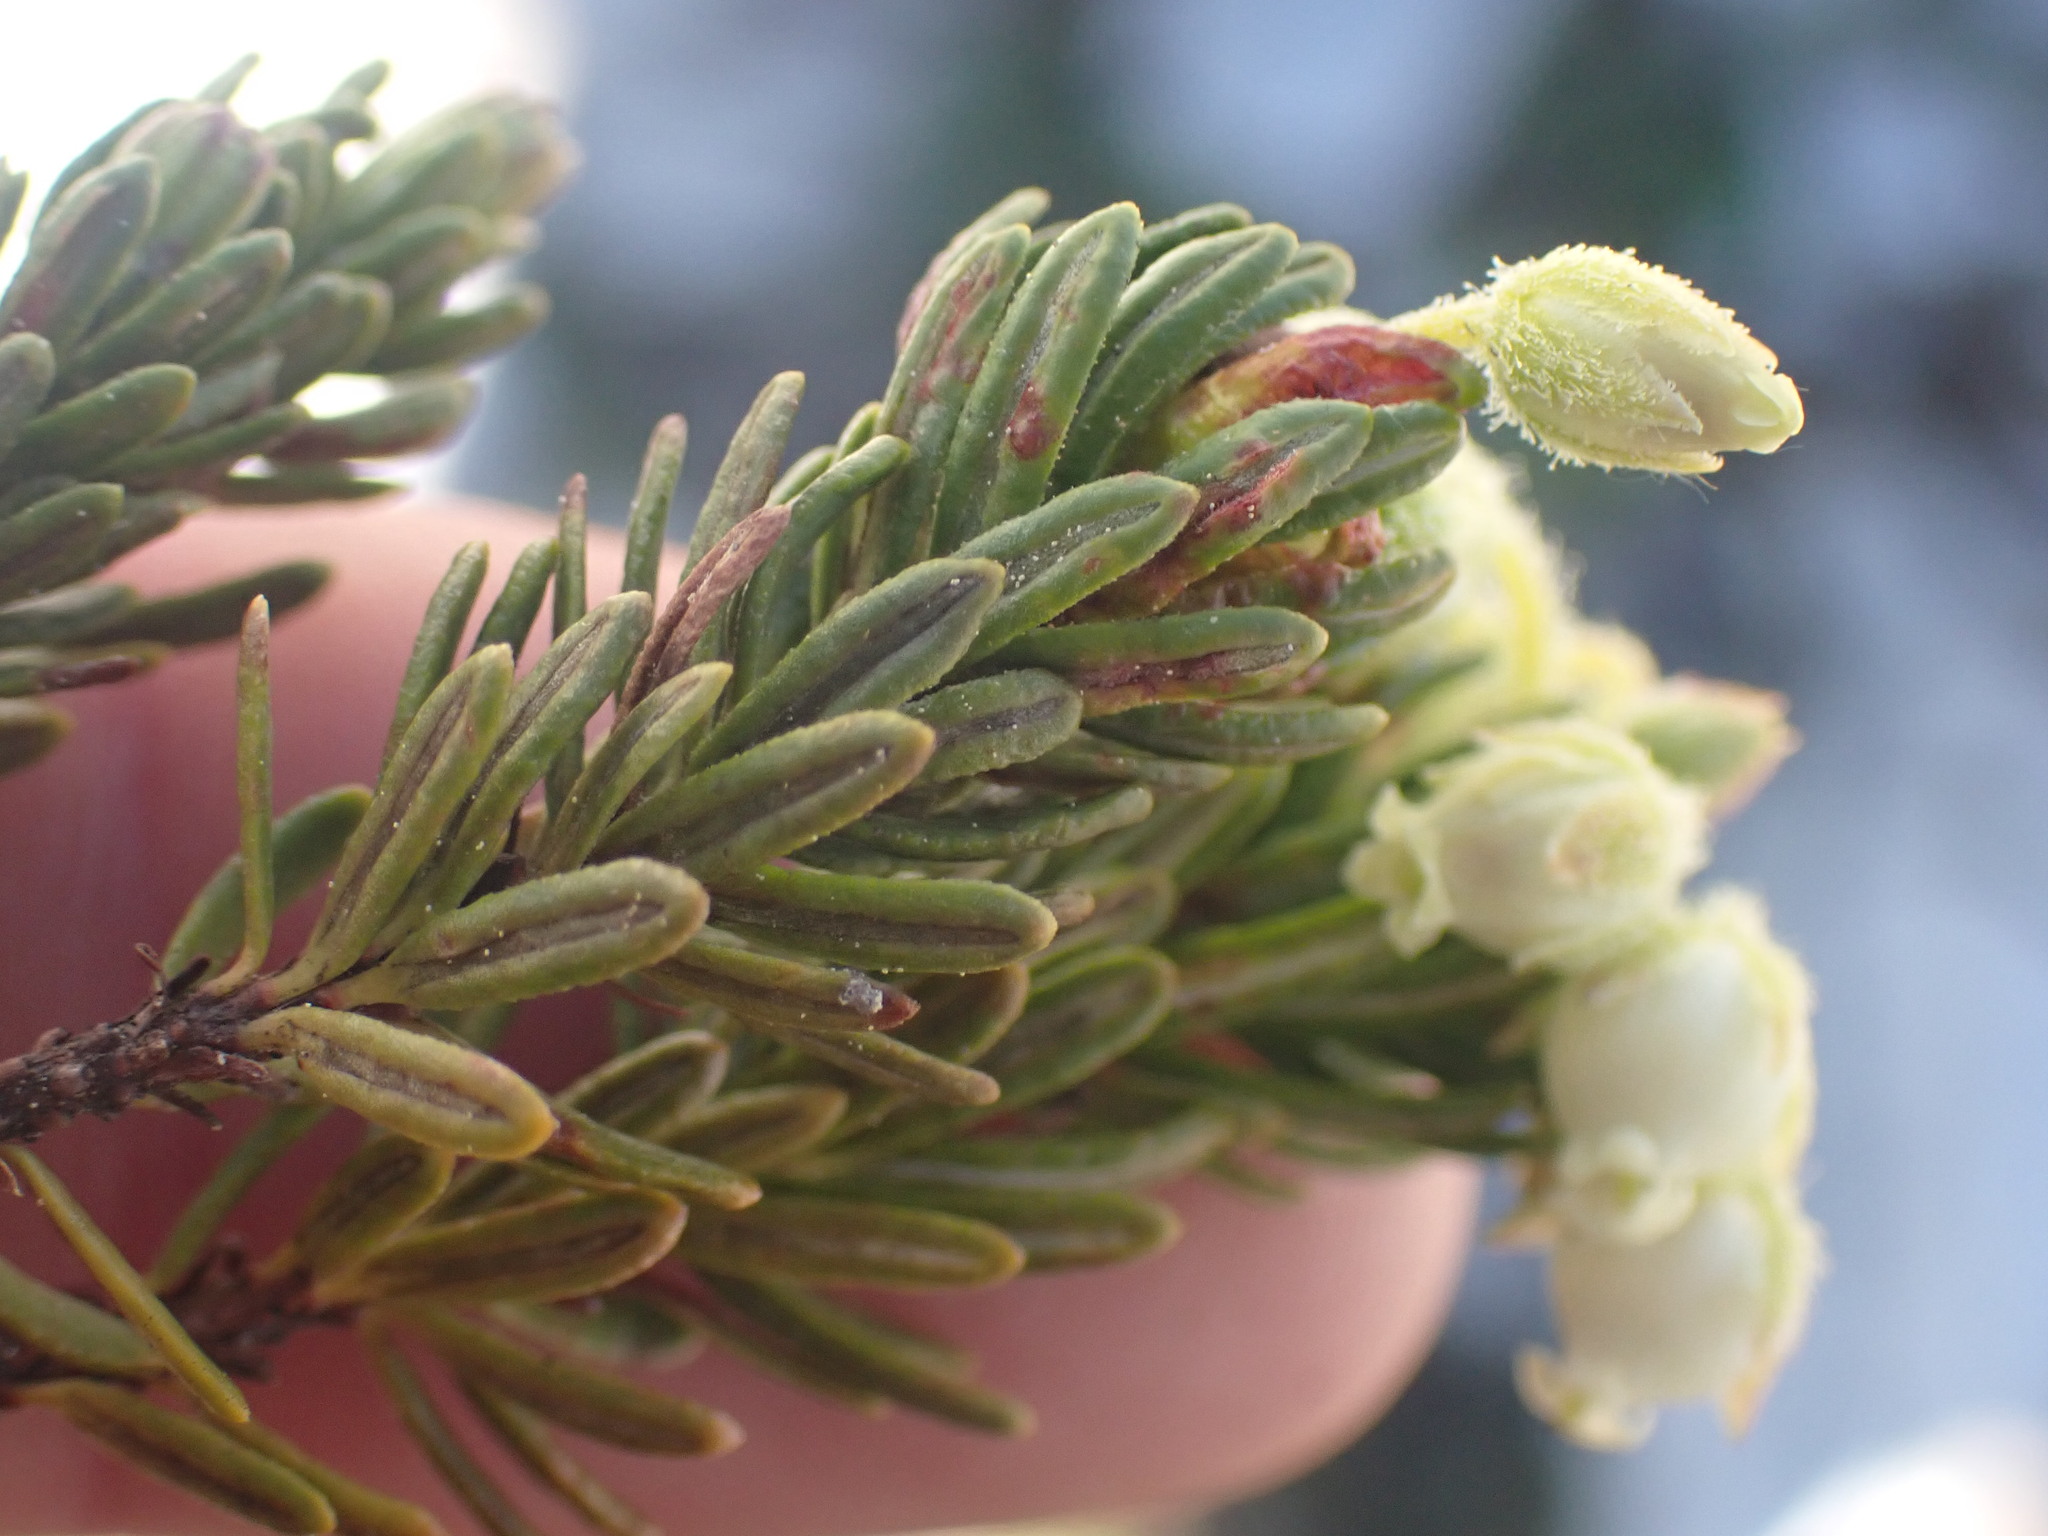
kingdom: Plantae
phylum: Tracheophyta
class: Magnoliopsida
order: Ericales
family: Ericaceae
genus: Phyllodoce
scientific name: Phyllodoce glanduliflora
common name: Cream mountain heather
